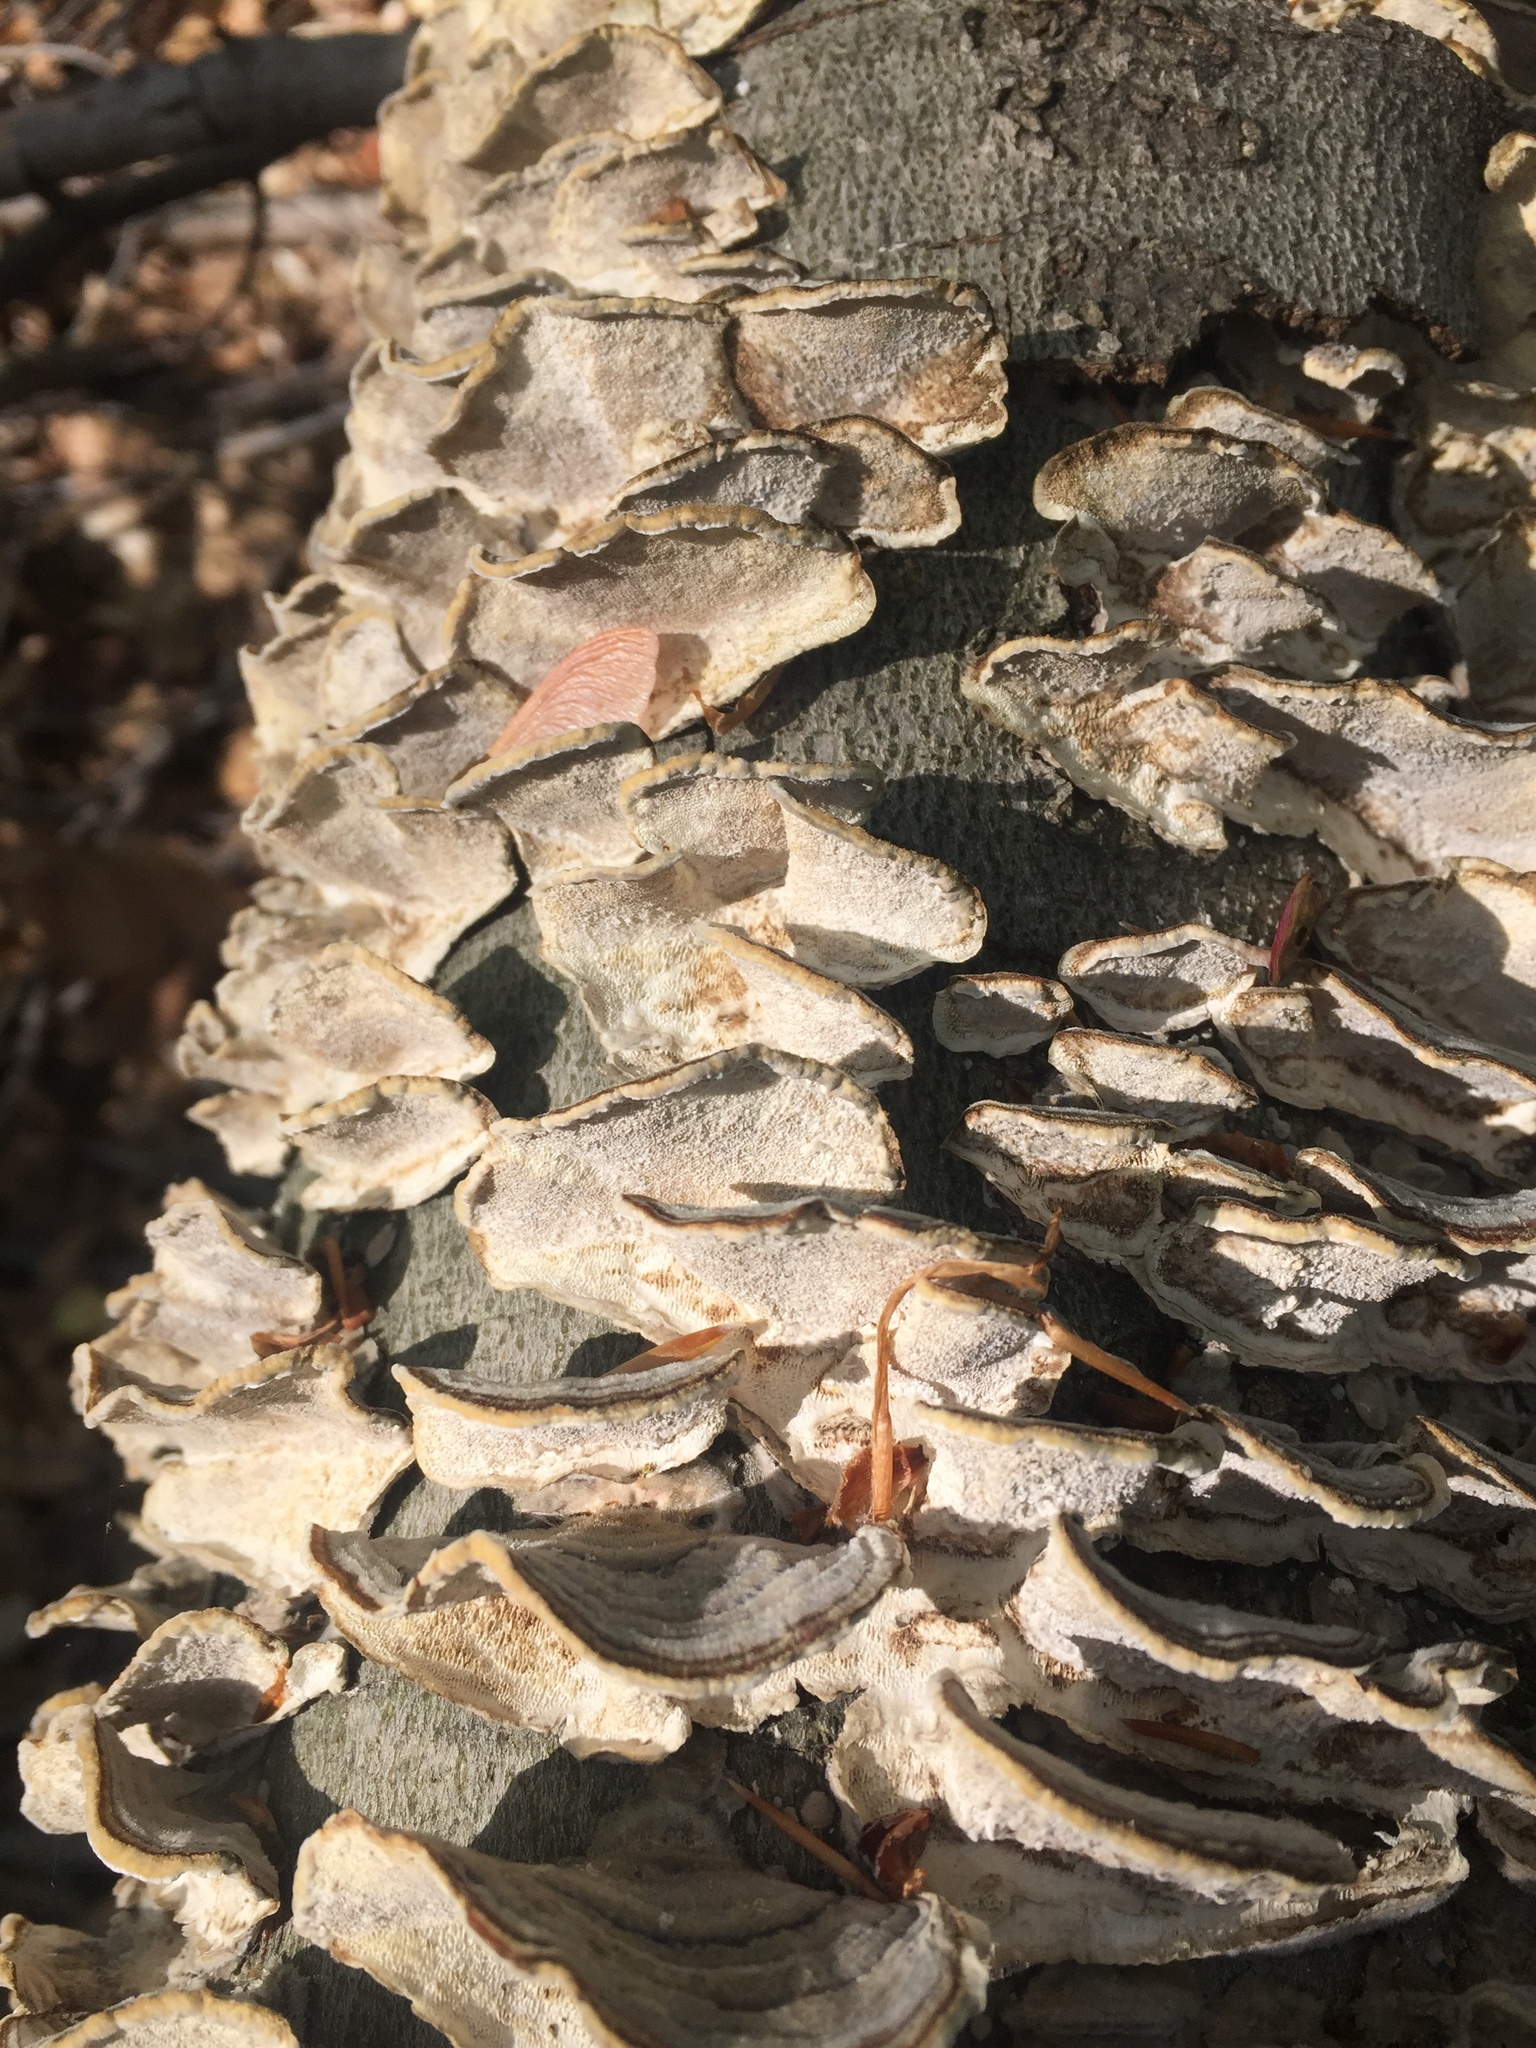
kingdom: Fungi
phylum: Basidiomycota
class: Agaricomycetes
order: Polyporales
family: Polyporaceae
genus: Trametes
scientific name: Trametes versicolor
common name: Turkeytail
